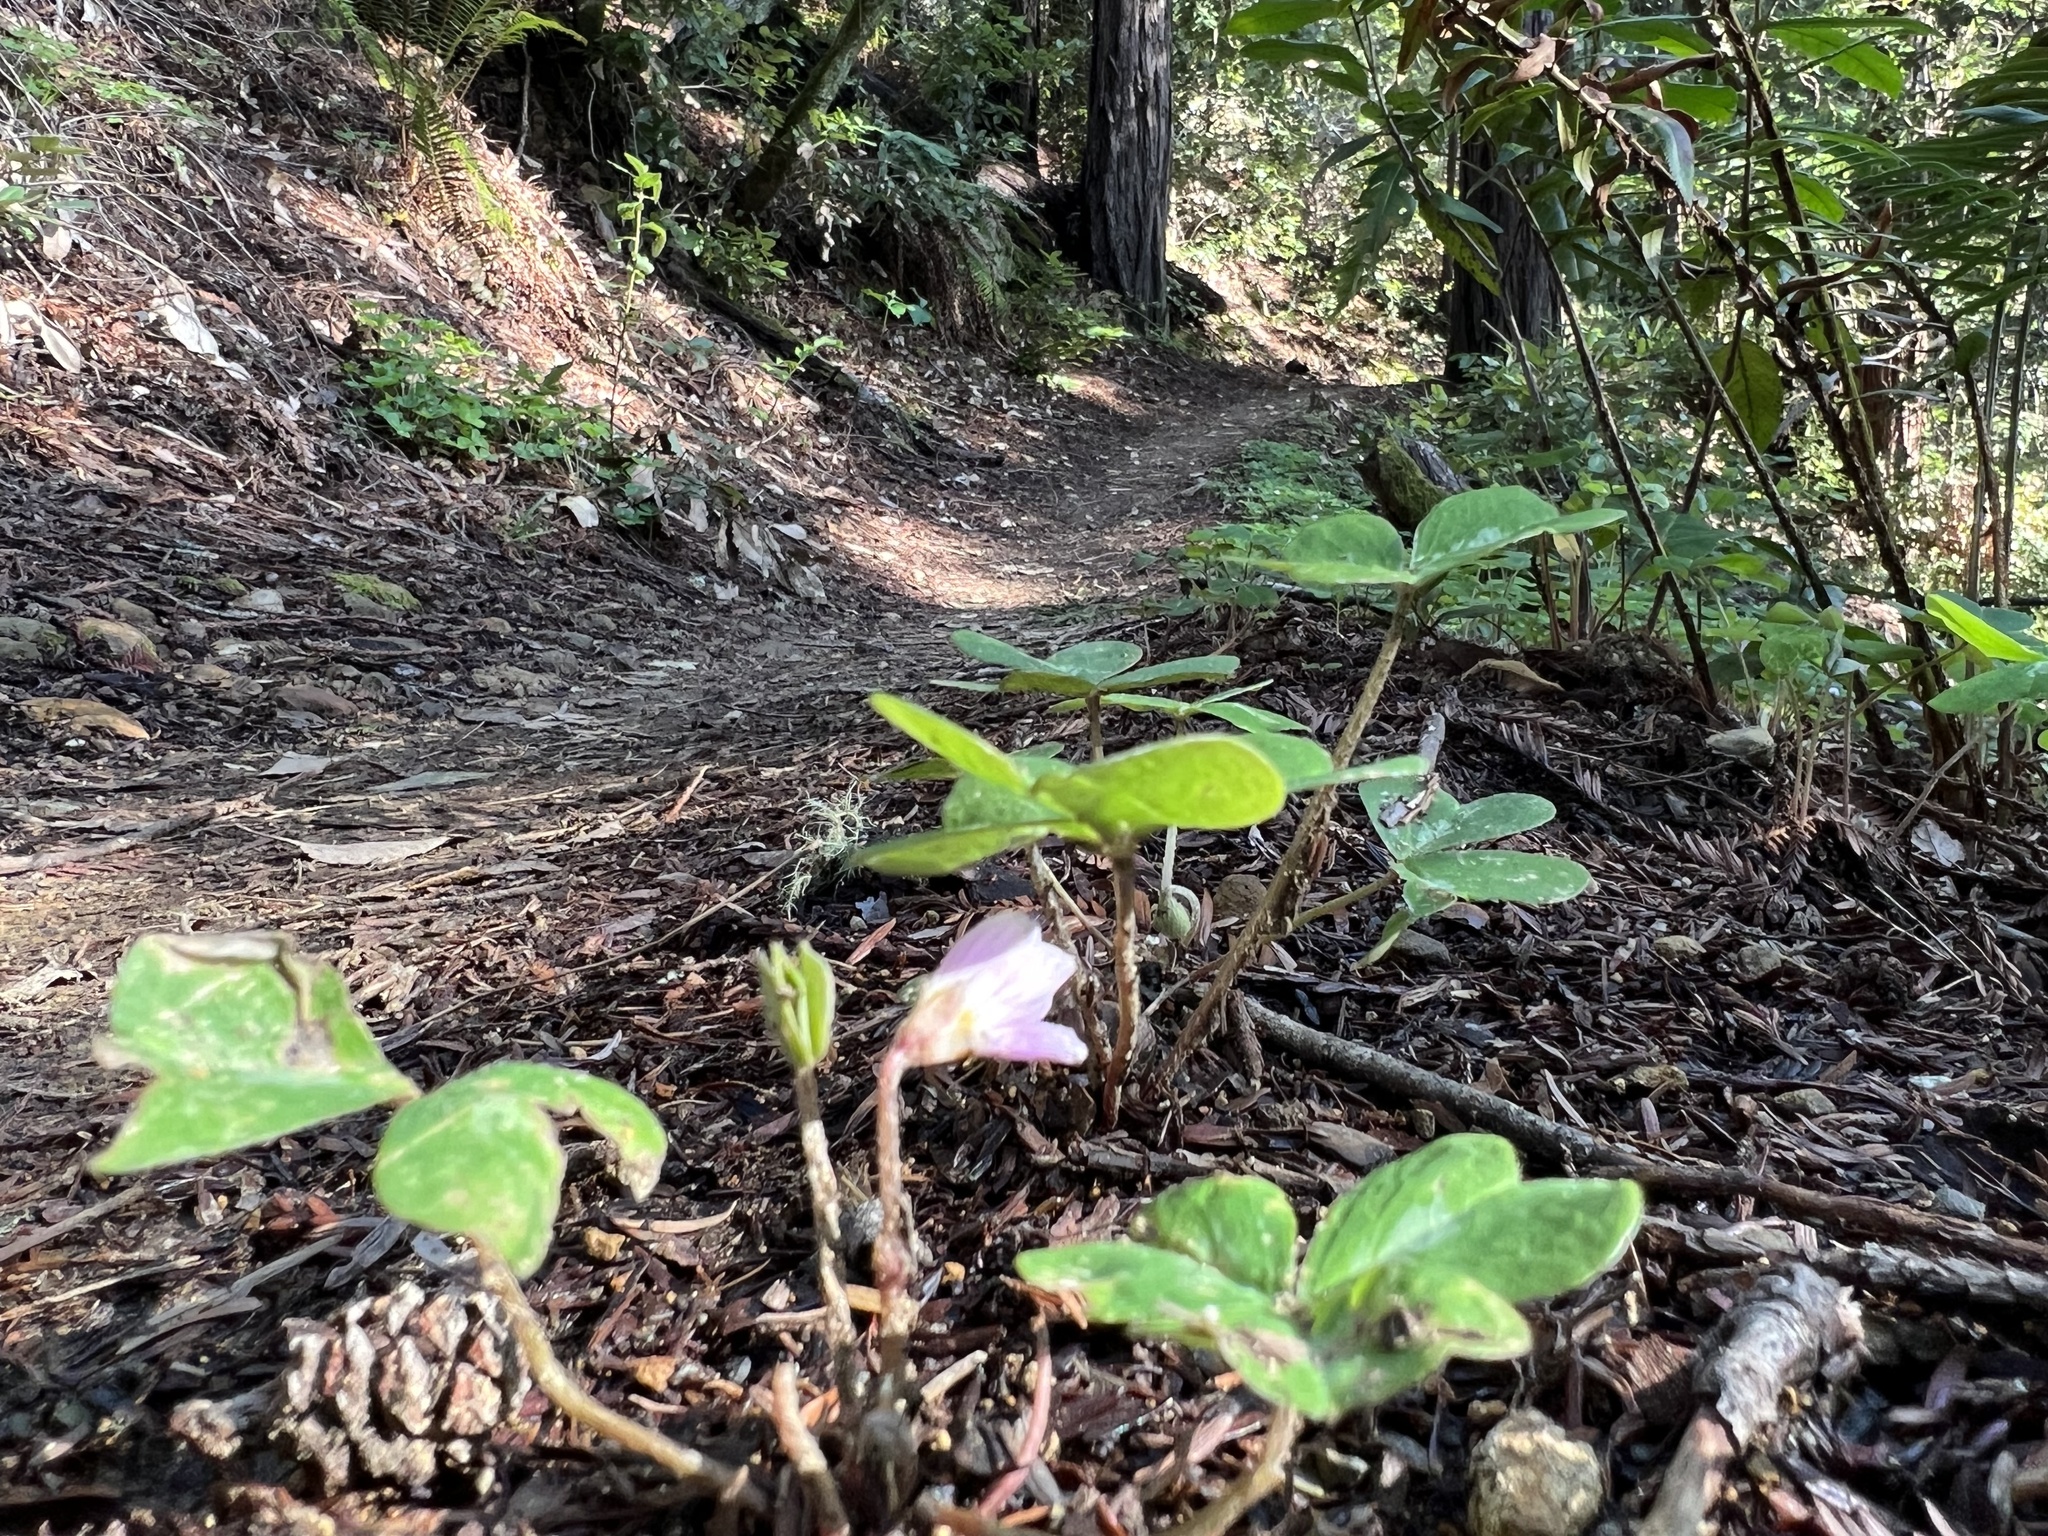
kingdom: Plantae
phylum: Tracheophyta
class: Magnoliopsida
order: Oxalidales
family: Oxalidaceae
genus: Oxalis
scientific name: Oxalis oregana
